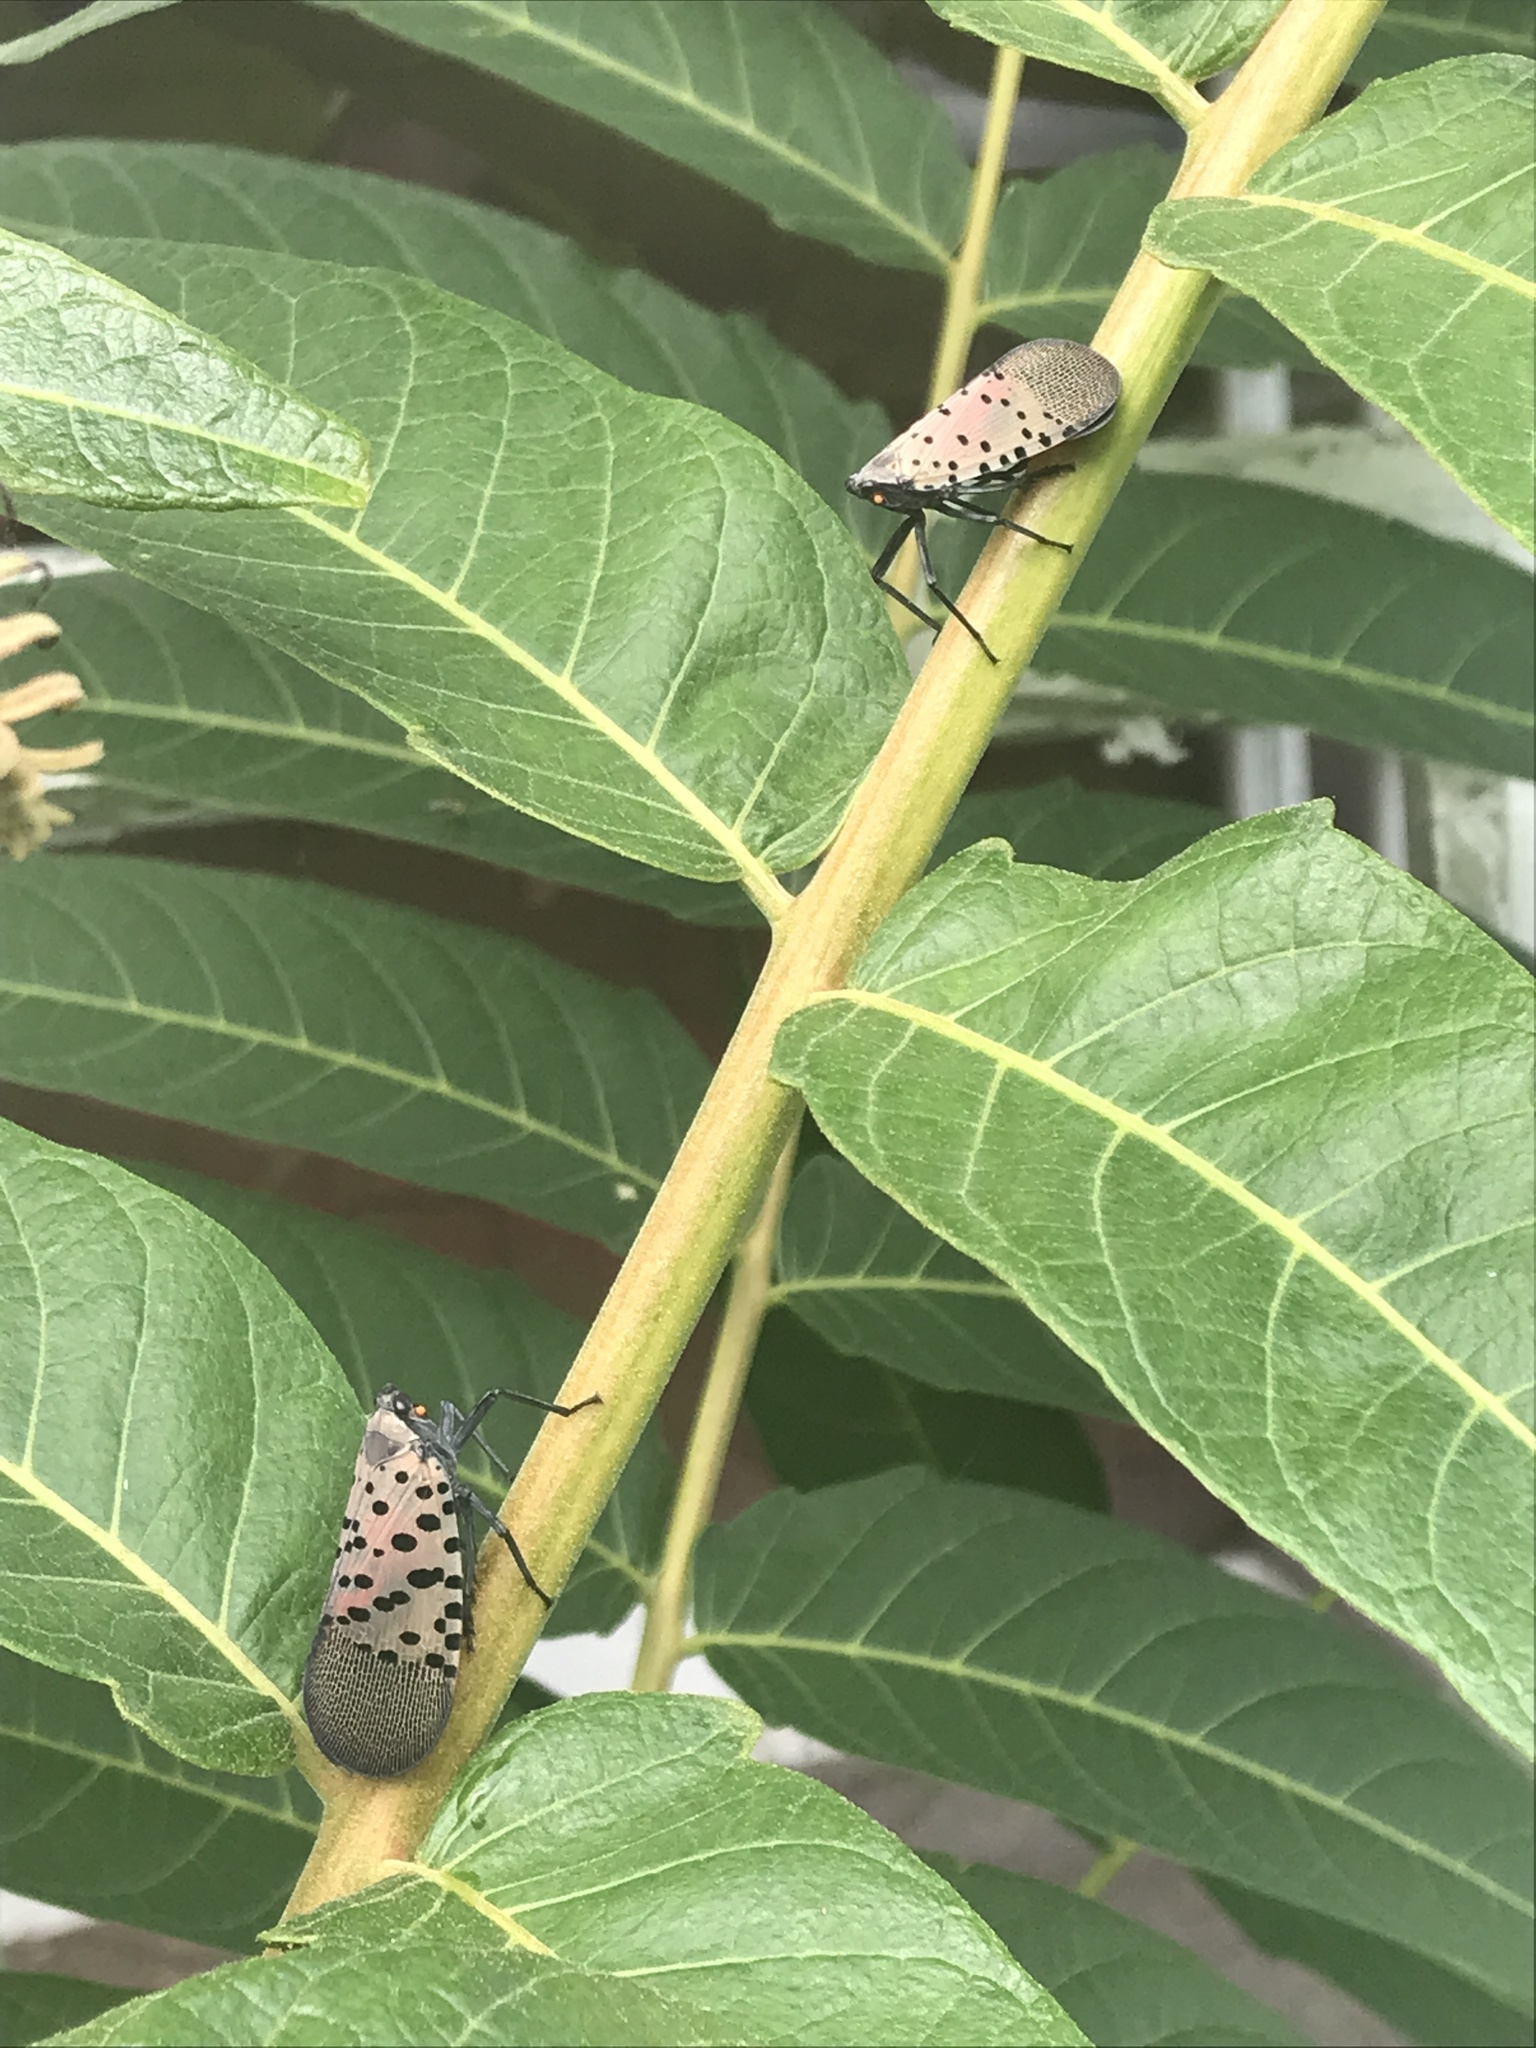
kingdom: Animalia
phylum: Arthropoda
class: Insecta
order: Hemiptera
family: Fulgoridae
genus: Lycorma
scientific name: Lycorma delicatula
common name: Spotted lanternfly
